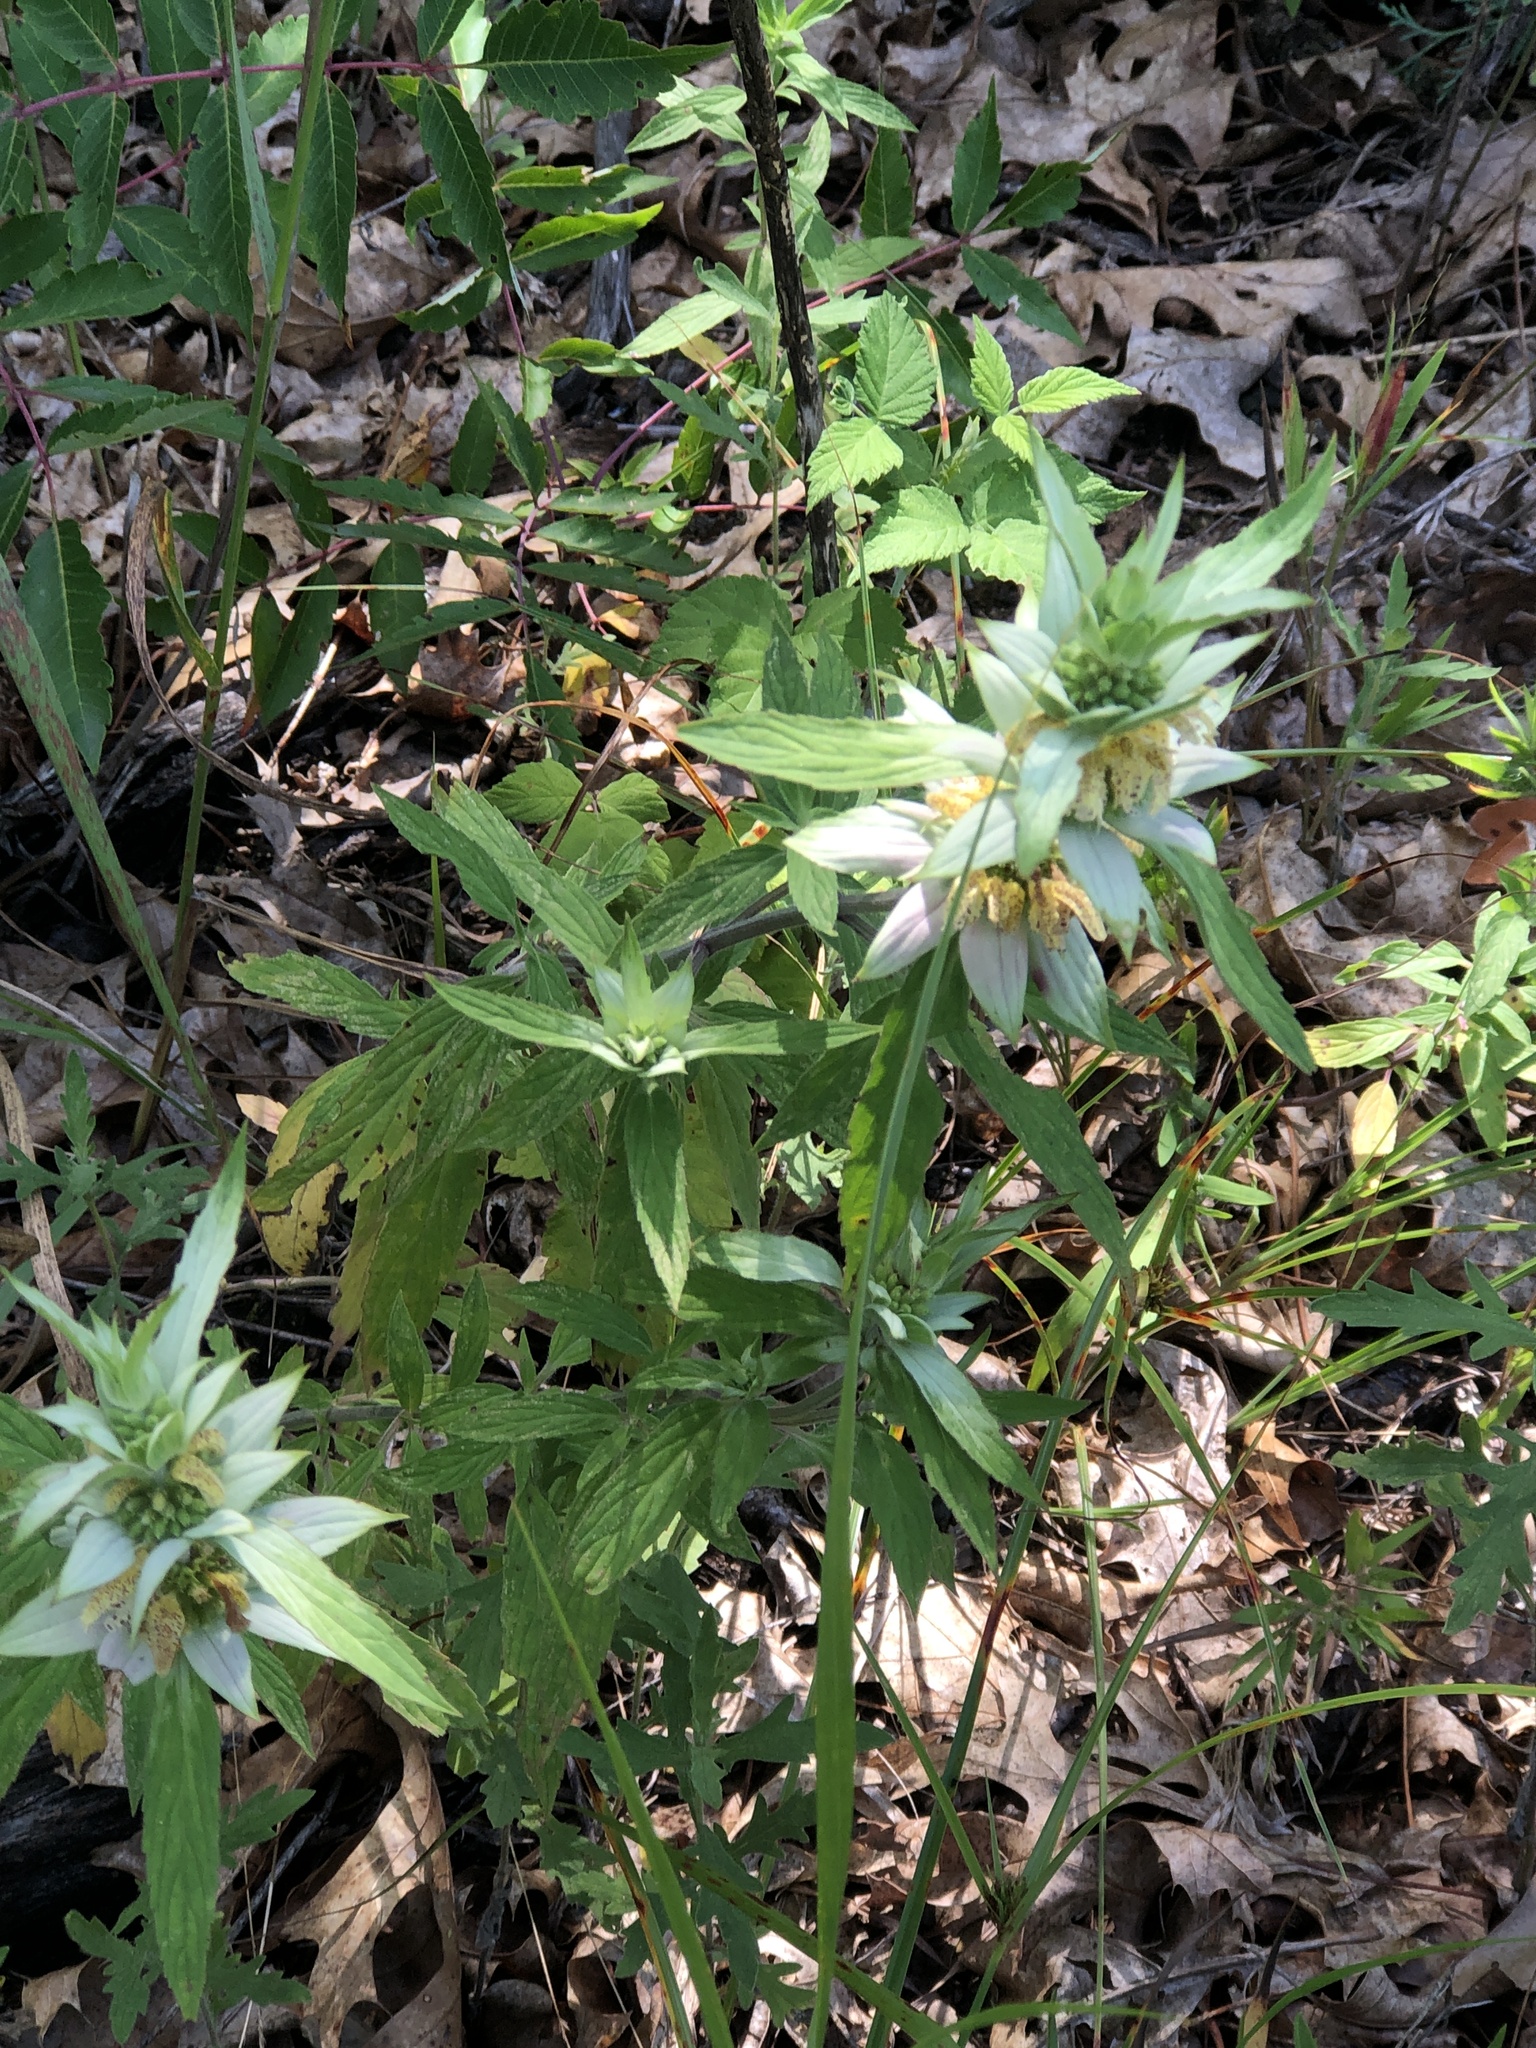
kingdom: Plantae
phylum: Tracheophyta
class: Magnoliopsida
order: Lamiales
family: Lamiaceae
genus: Monarda
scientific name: Monarda punctata
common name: Dotted monarda
